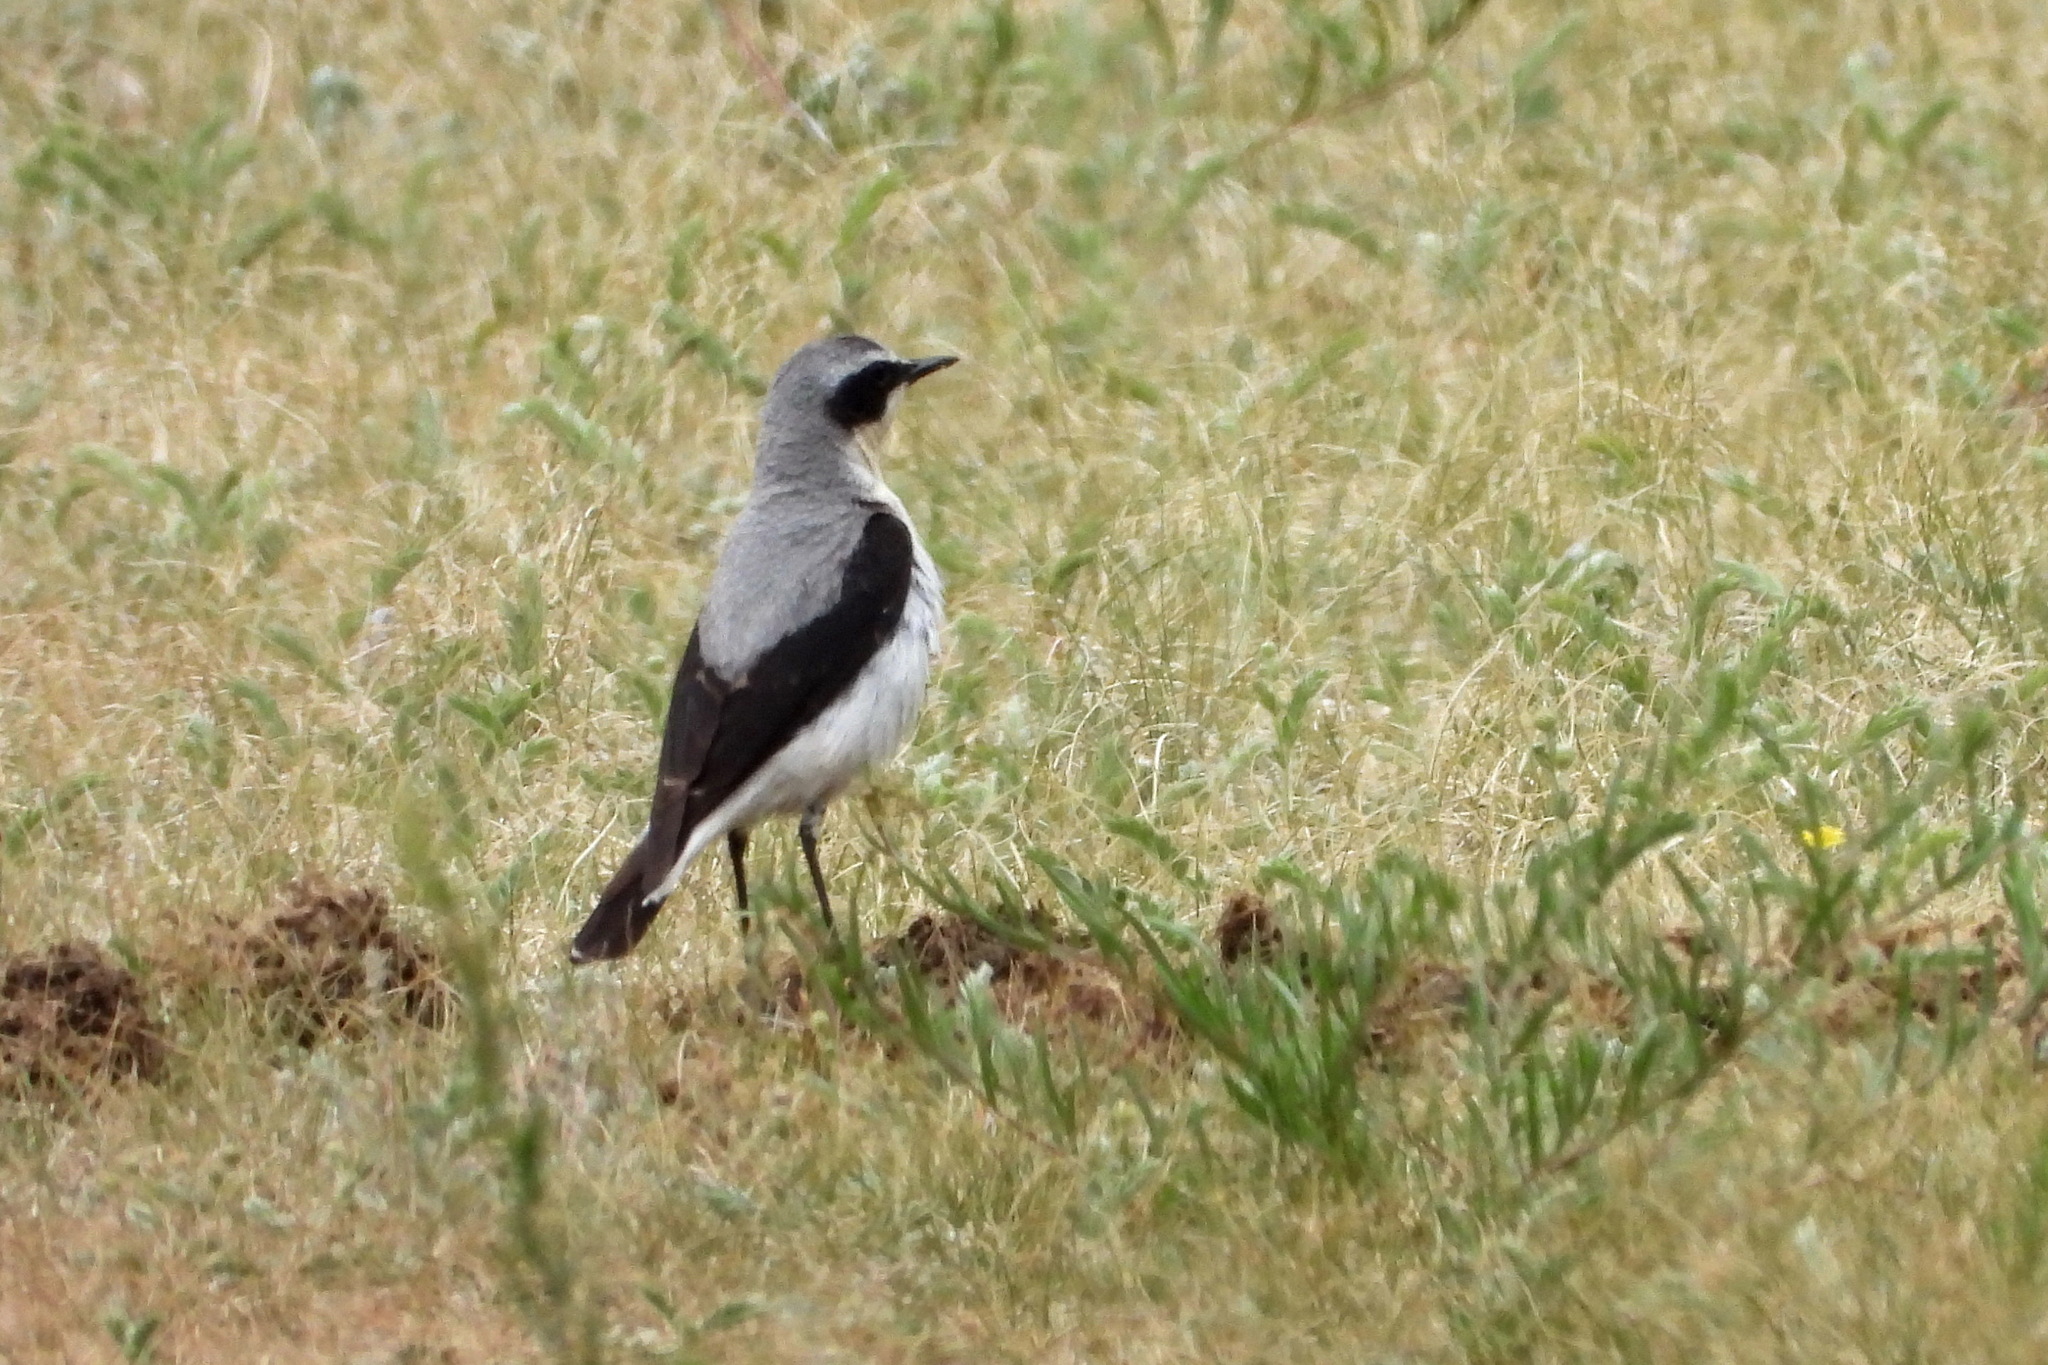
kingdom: Animalia
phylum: Chordata
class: Aves
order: Passeriformes
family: Muscicapidae
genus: Oenanthe
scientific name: Oenanthe oenanthe
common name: Northern wheatear
